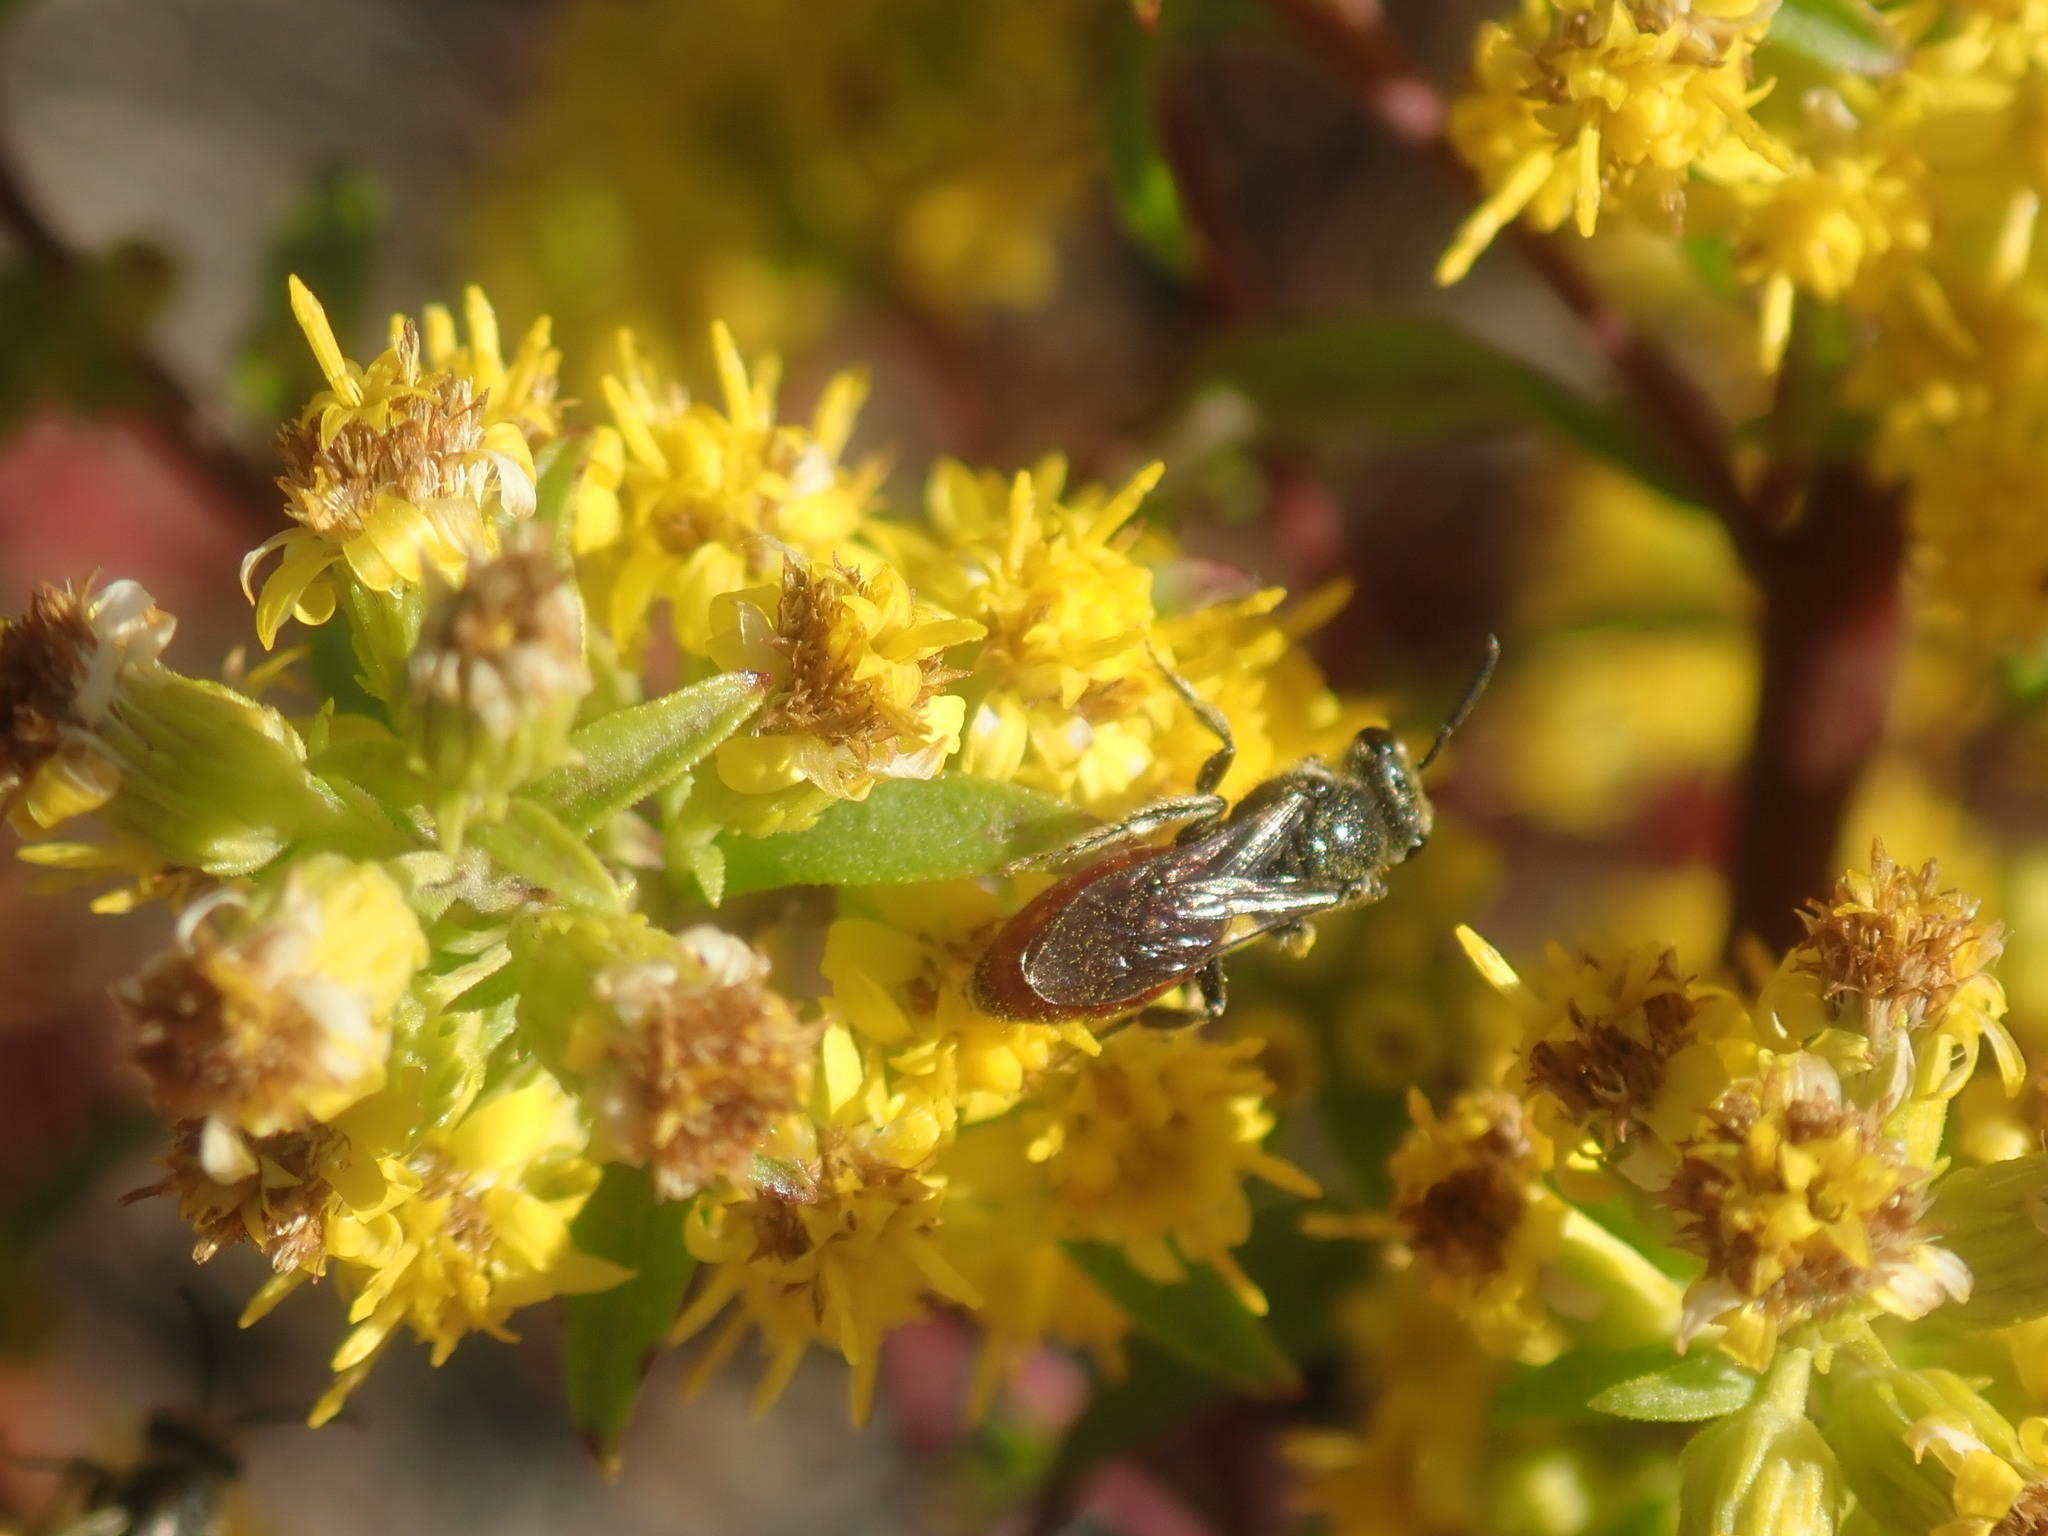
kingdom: Animalia
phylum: Arthropoda
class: Insecta
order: Hymenoptera
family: Halictidae
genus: Sphecodes
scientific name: Sphecodes
